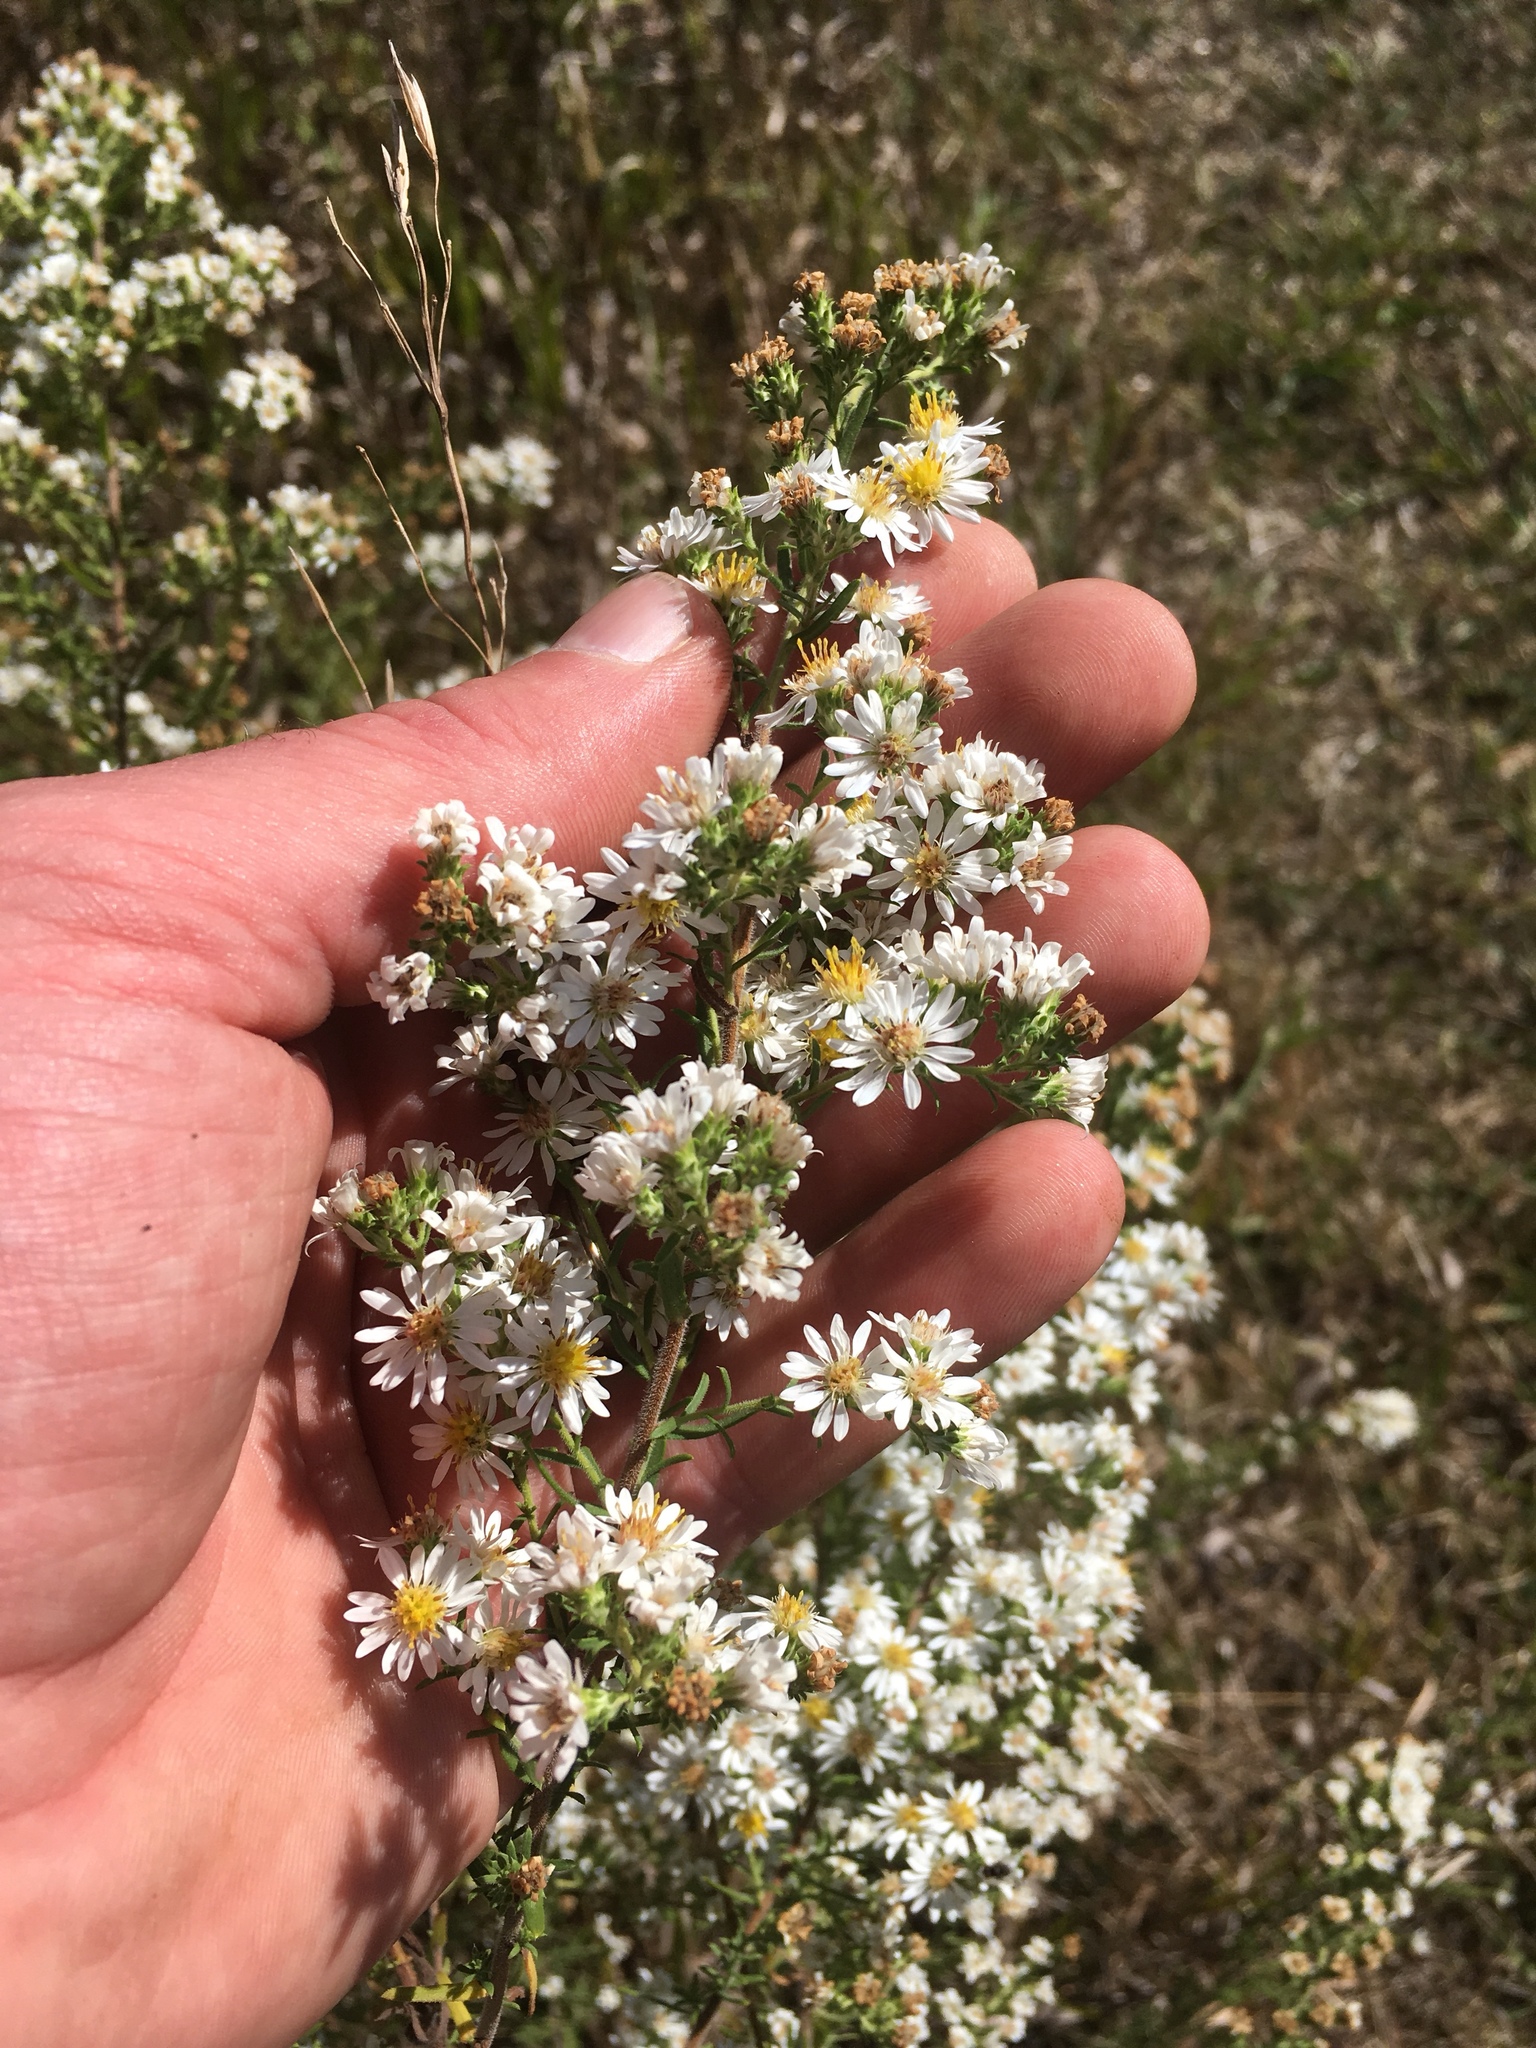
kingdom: Plantae
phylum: Tracheophyta
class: Magnoliopsida
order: Asterales
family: Asteraceae
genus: Symphyotrichum
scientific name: Symphyotrichum ericoides
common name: Heath aster
